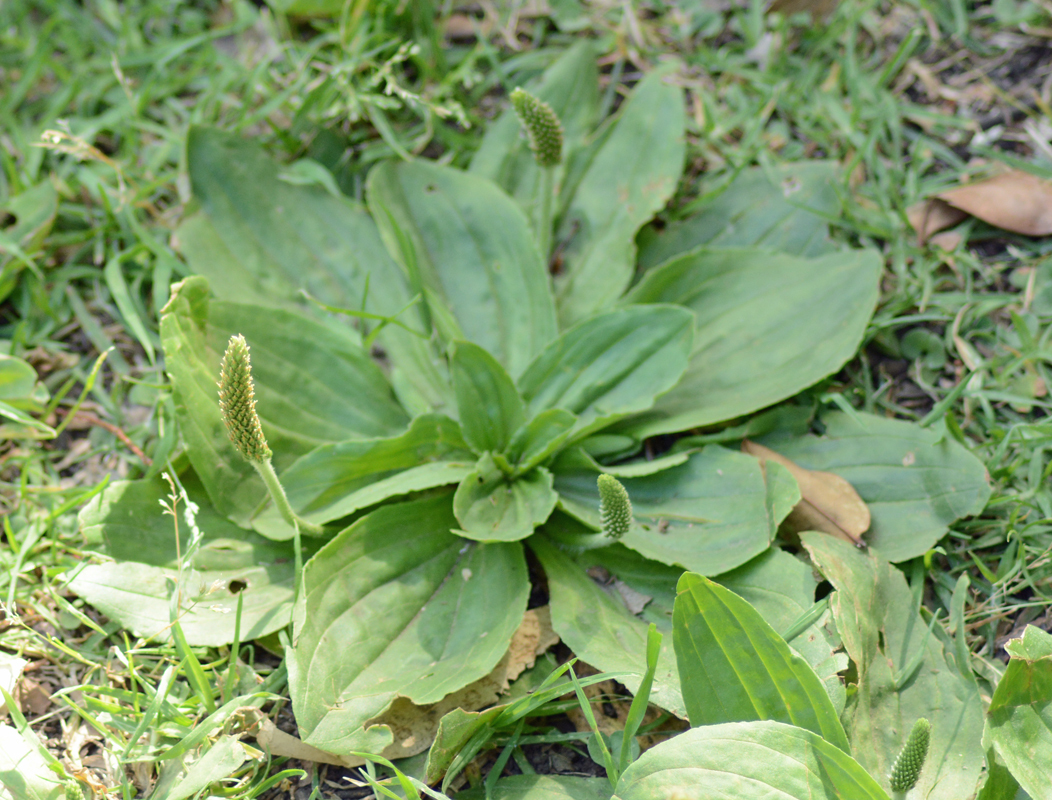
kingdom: Plantae
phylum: Tracheophyta
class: Magnoliopsida
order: Lamiales
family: Plantaginaceae
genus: Plantago
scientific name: Plantago australis
